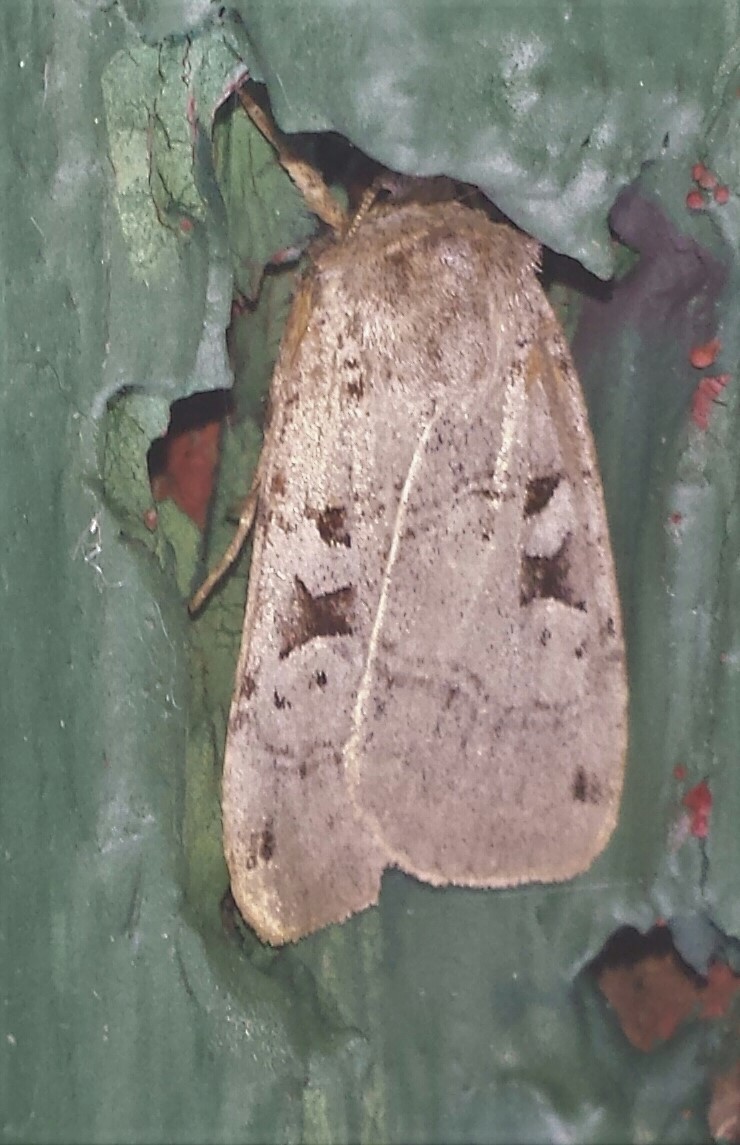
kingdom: Animalia
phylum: Arthropoda
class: Insecta
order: Lepidoptera
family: Noctuidae
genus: Xestia
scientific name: Xestia normaniana
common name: Norman's dart moth
